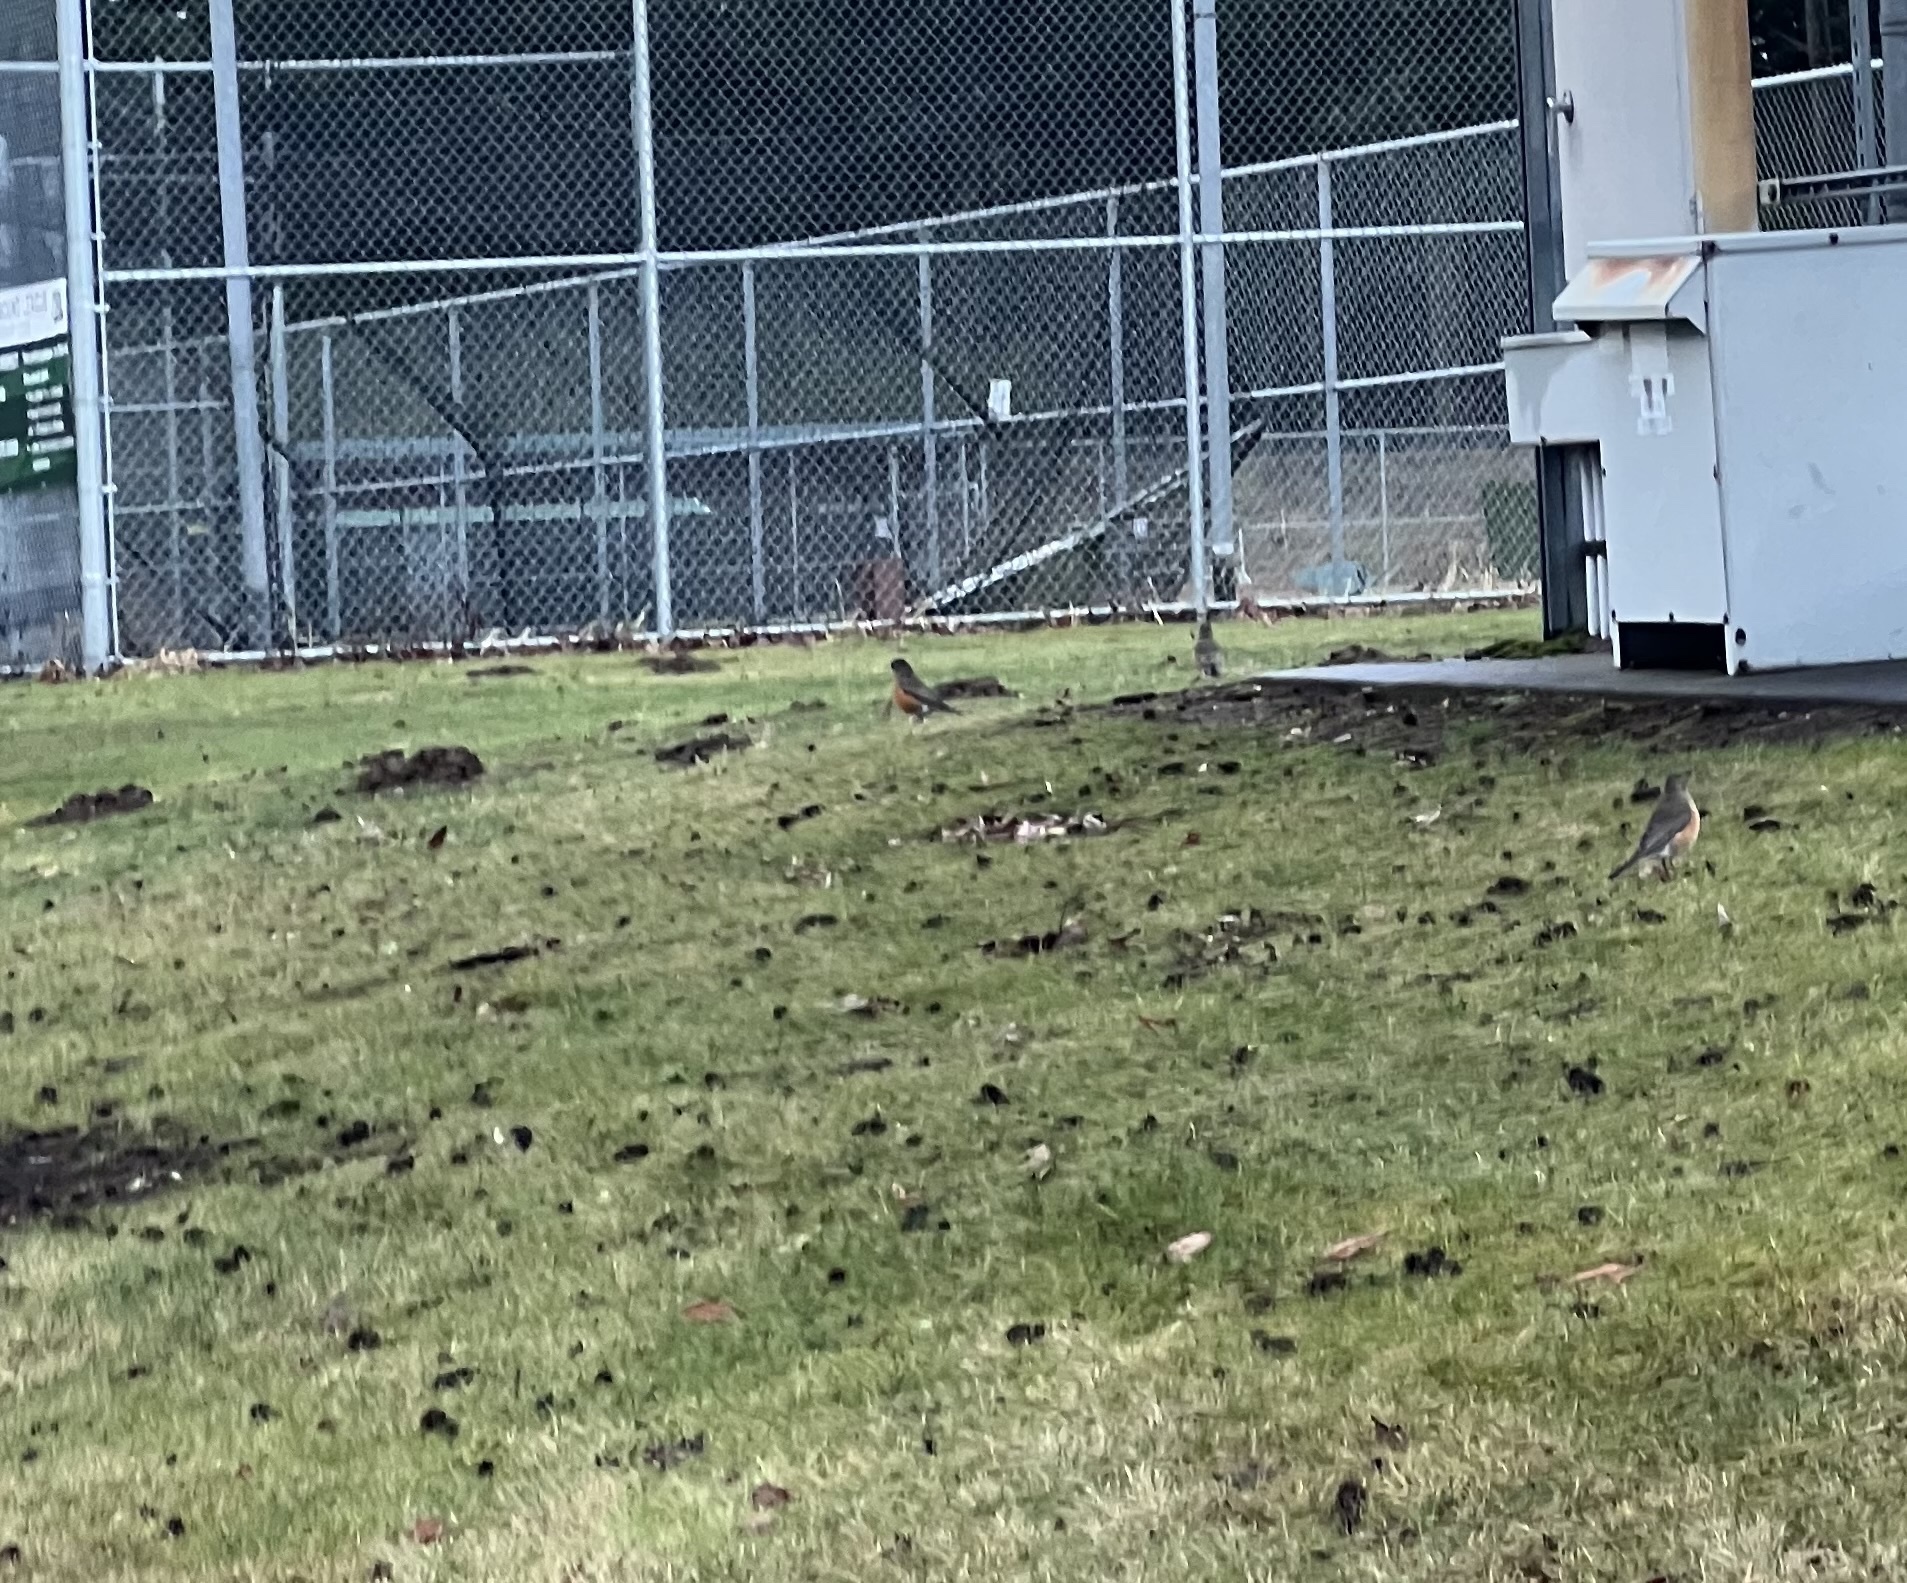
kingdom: Animalia
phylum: Chordata
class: Aves
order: Passeriformes
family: Turdidae
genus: Turdus
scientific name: Turdus migratorius
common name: American robin
